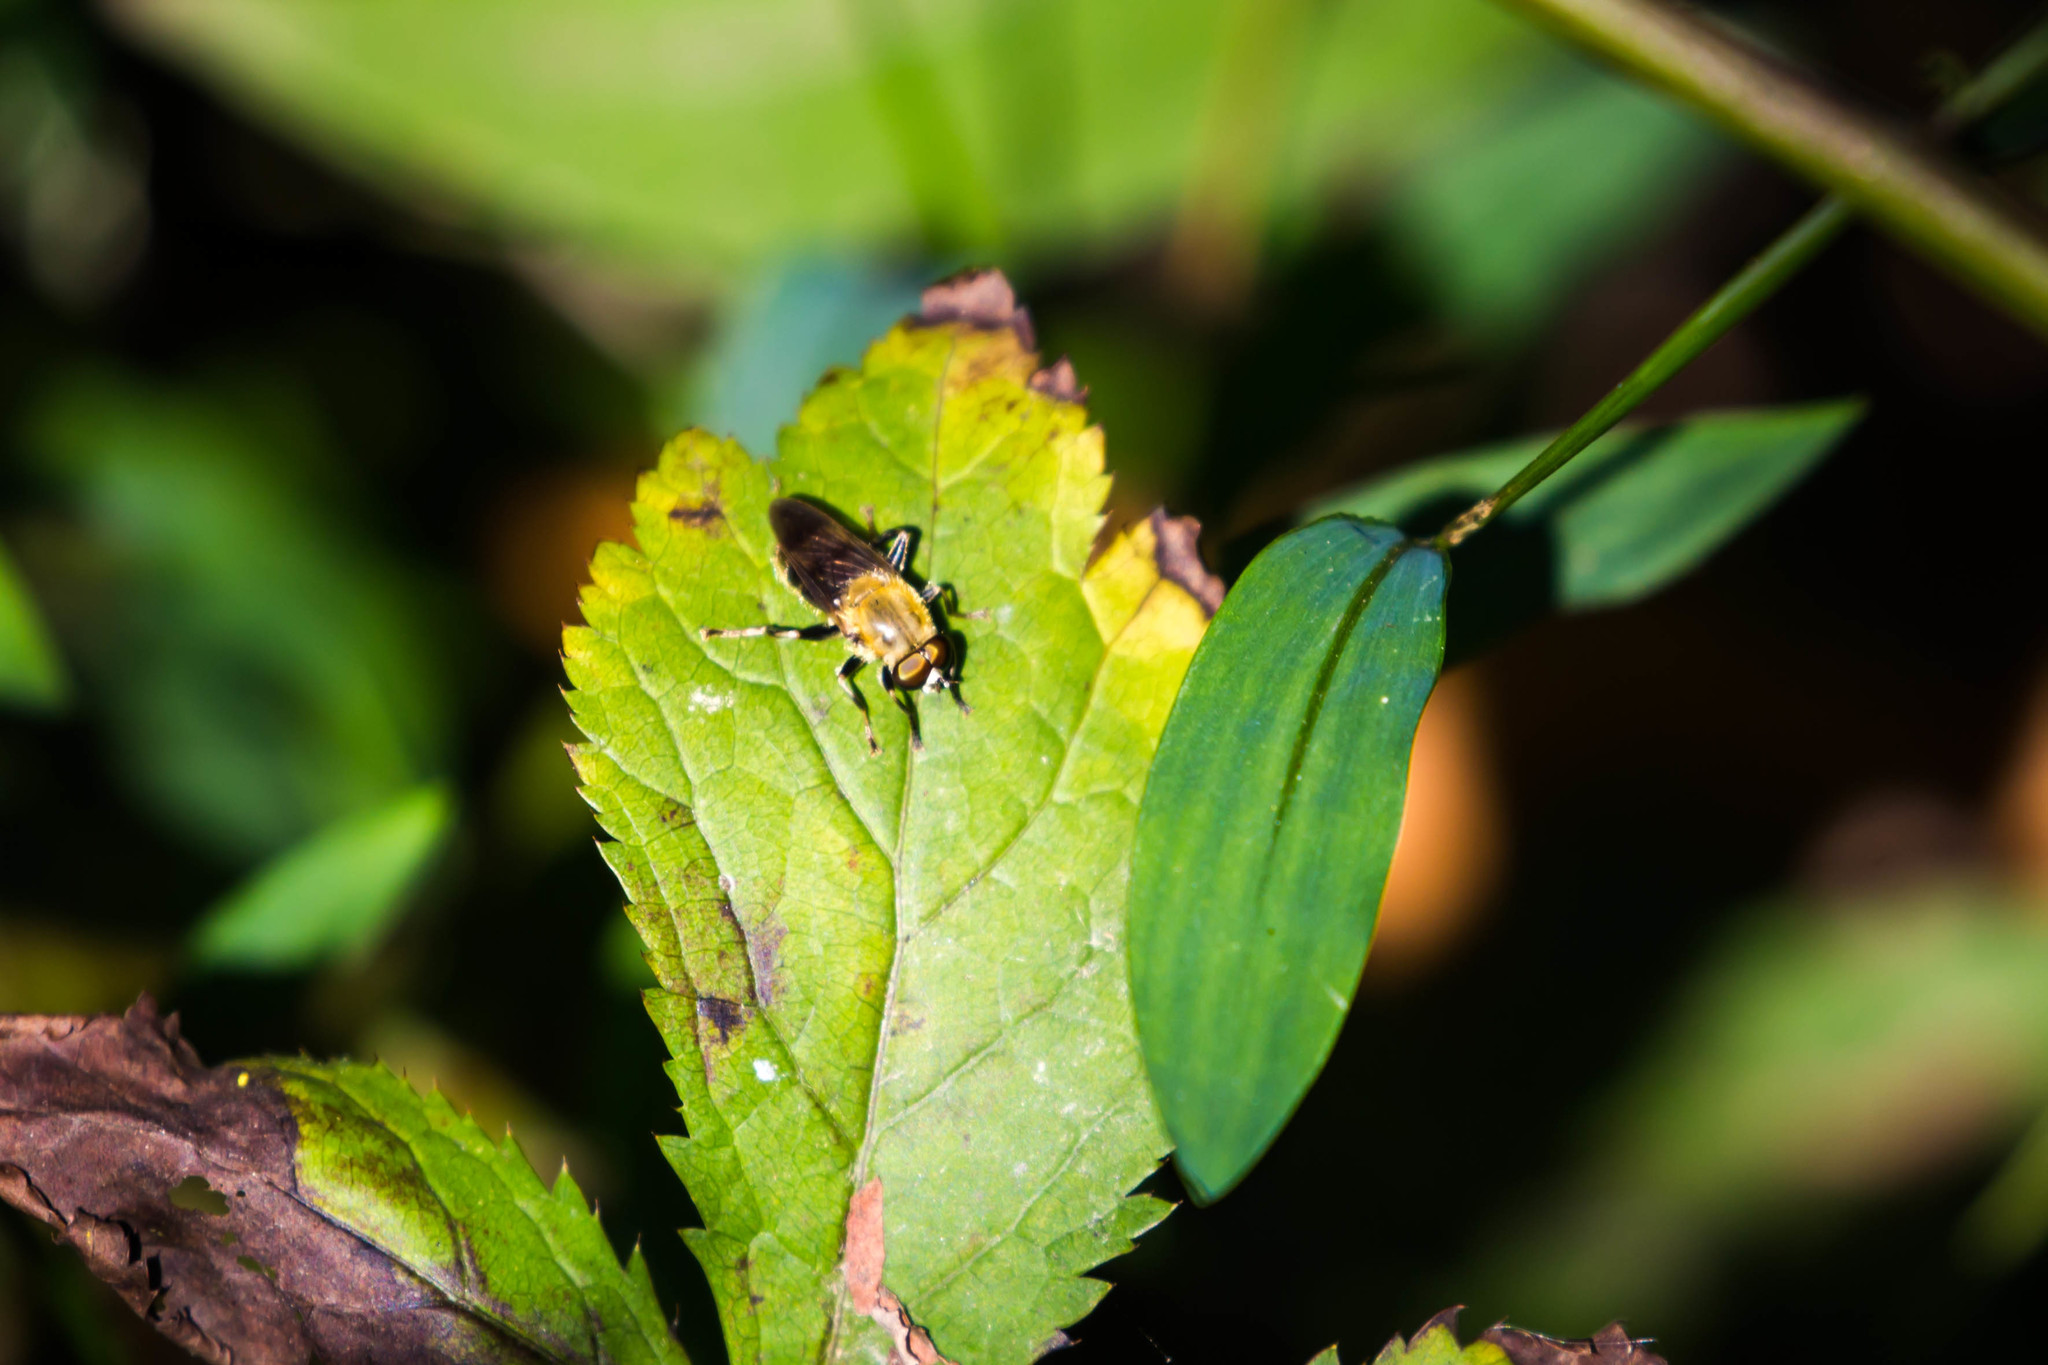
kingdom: Animalia
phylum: Arthropoda
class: Insecta
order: Diptera
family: Syrphidae
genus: Pterallastes
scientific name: Pterallastes thoracicus
